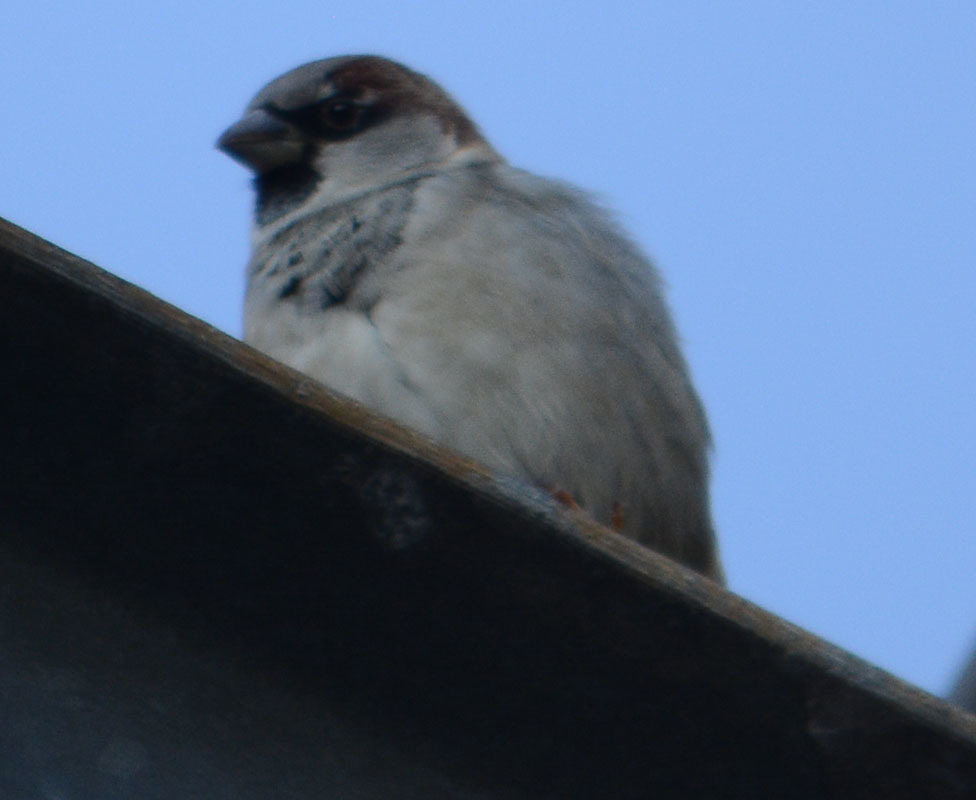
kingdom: Animalia
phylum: Chordata
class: Aves
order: Passeriformes
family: Passeridae
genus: Passer
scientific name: Passer domesticus
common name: House sparrow
